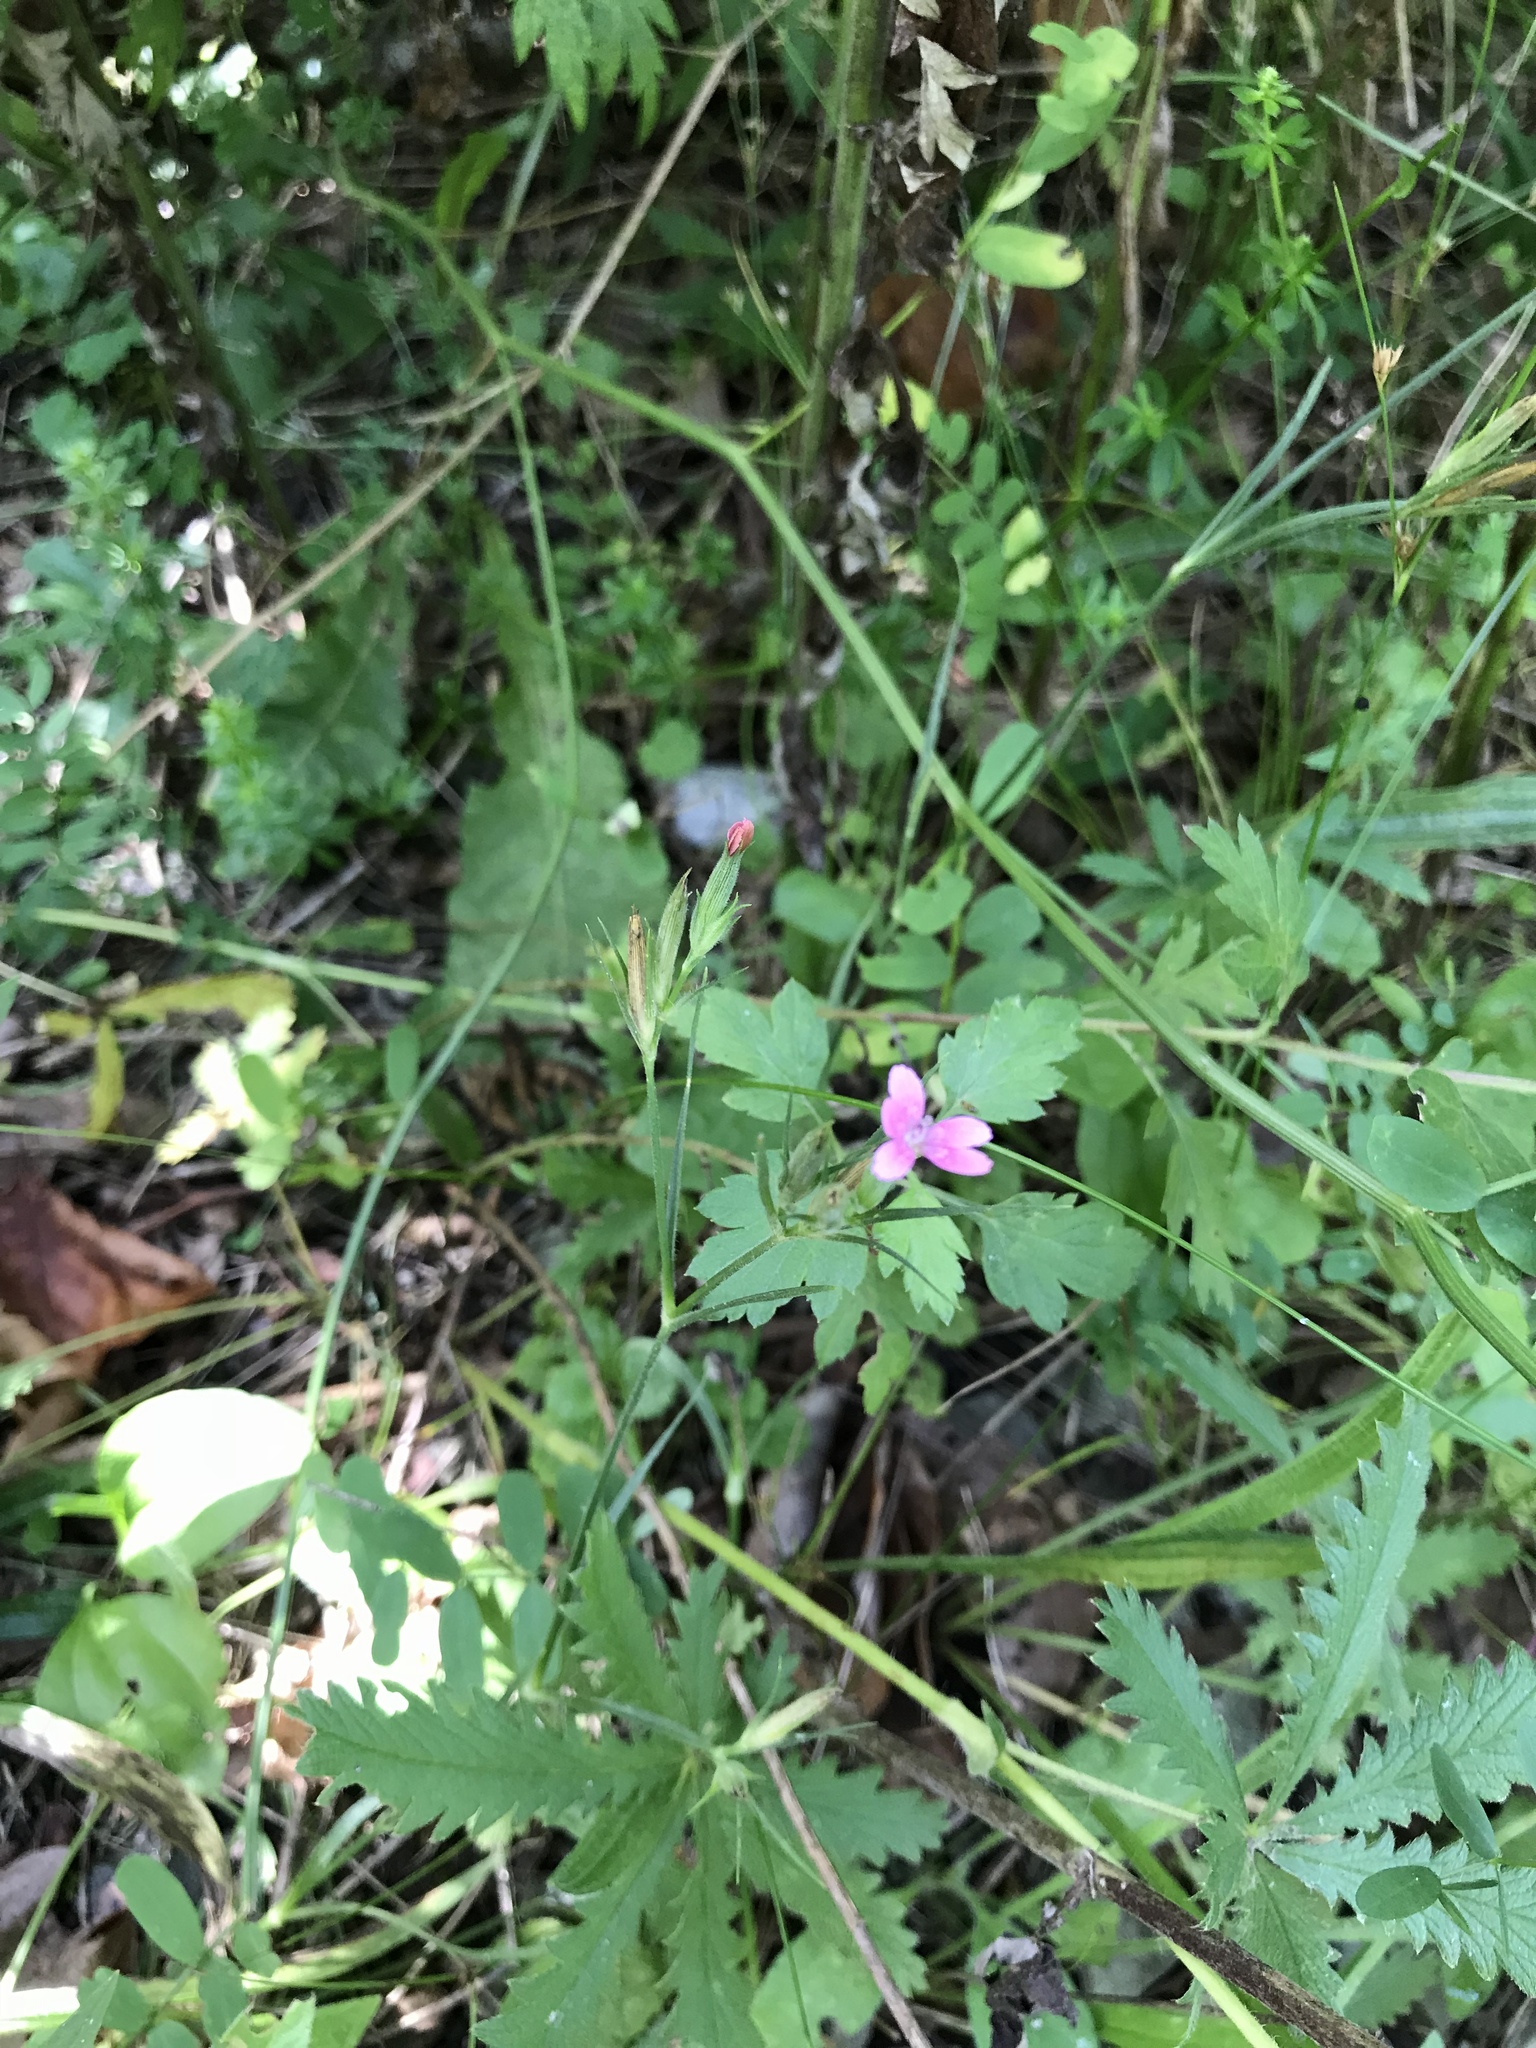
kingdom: Plantae
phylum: Tracheophyta
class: Magnoliopsida
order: Caryophyllales
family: Caryophyllaceae
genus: Dianthus
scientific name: Dianthus armeria
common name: Deptford pink
